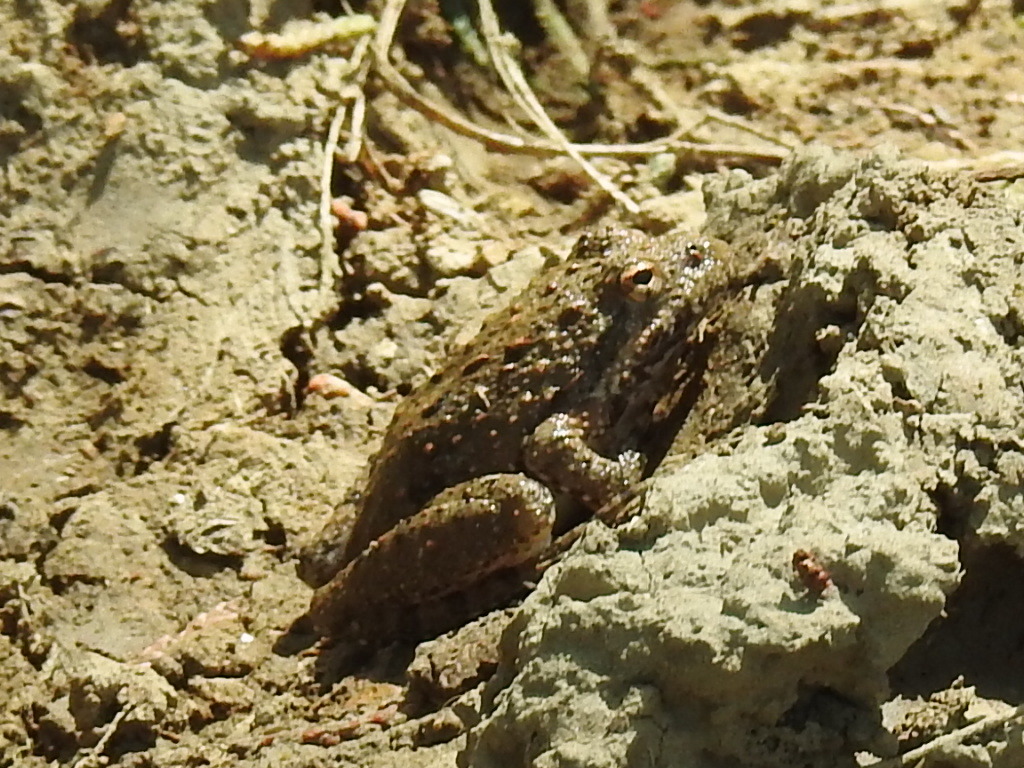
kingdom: Animalia
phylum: Chordata
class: Amphibia
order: Anura
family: Hylidae
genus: Acris
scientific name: Acris blanchardi
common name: Blanchard's cricket frog
